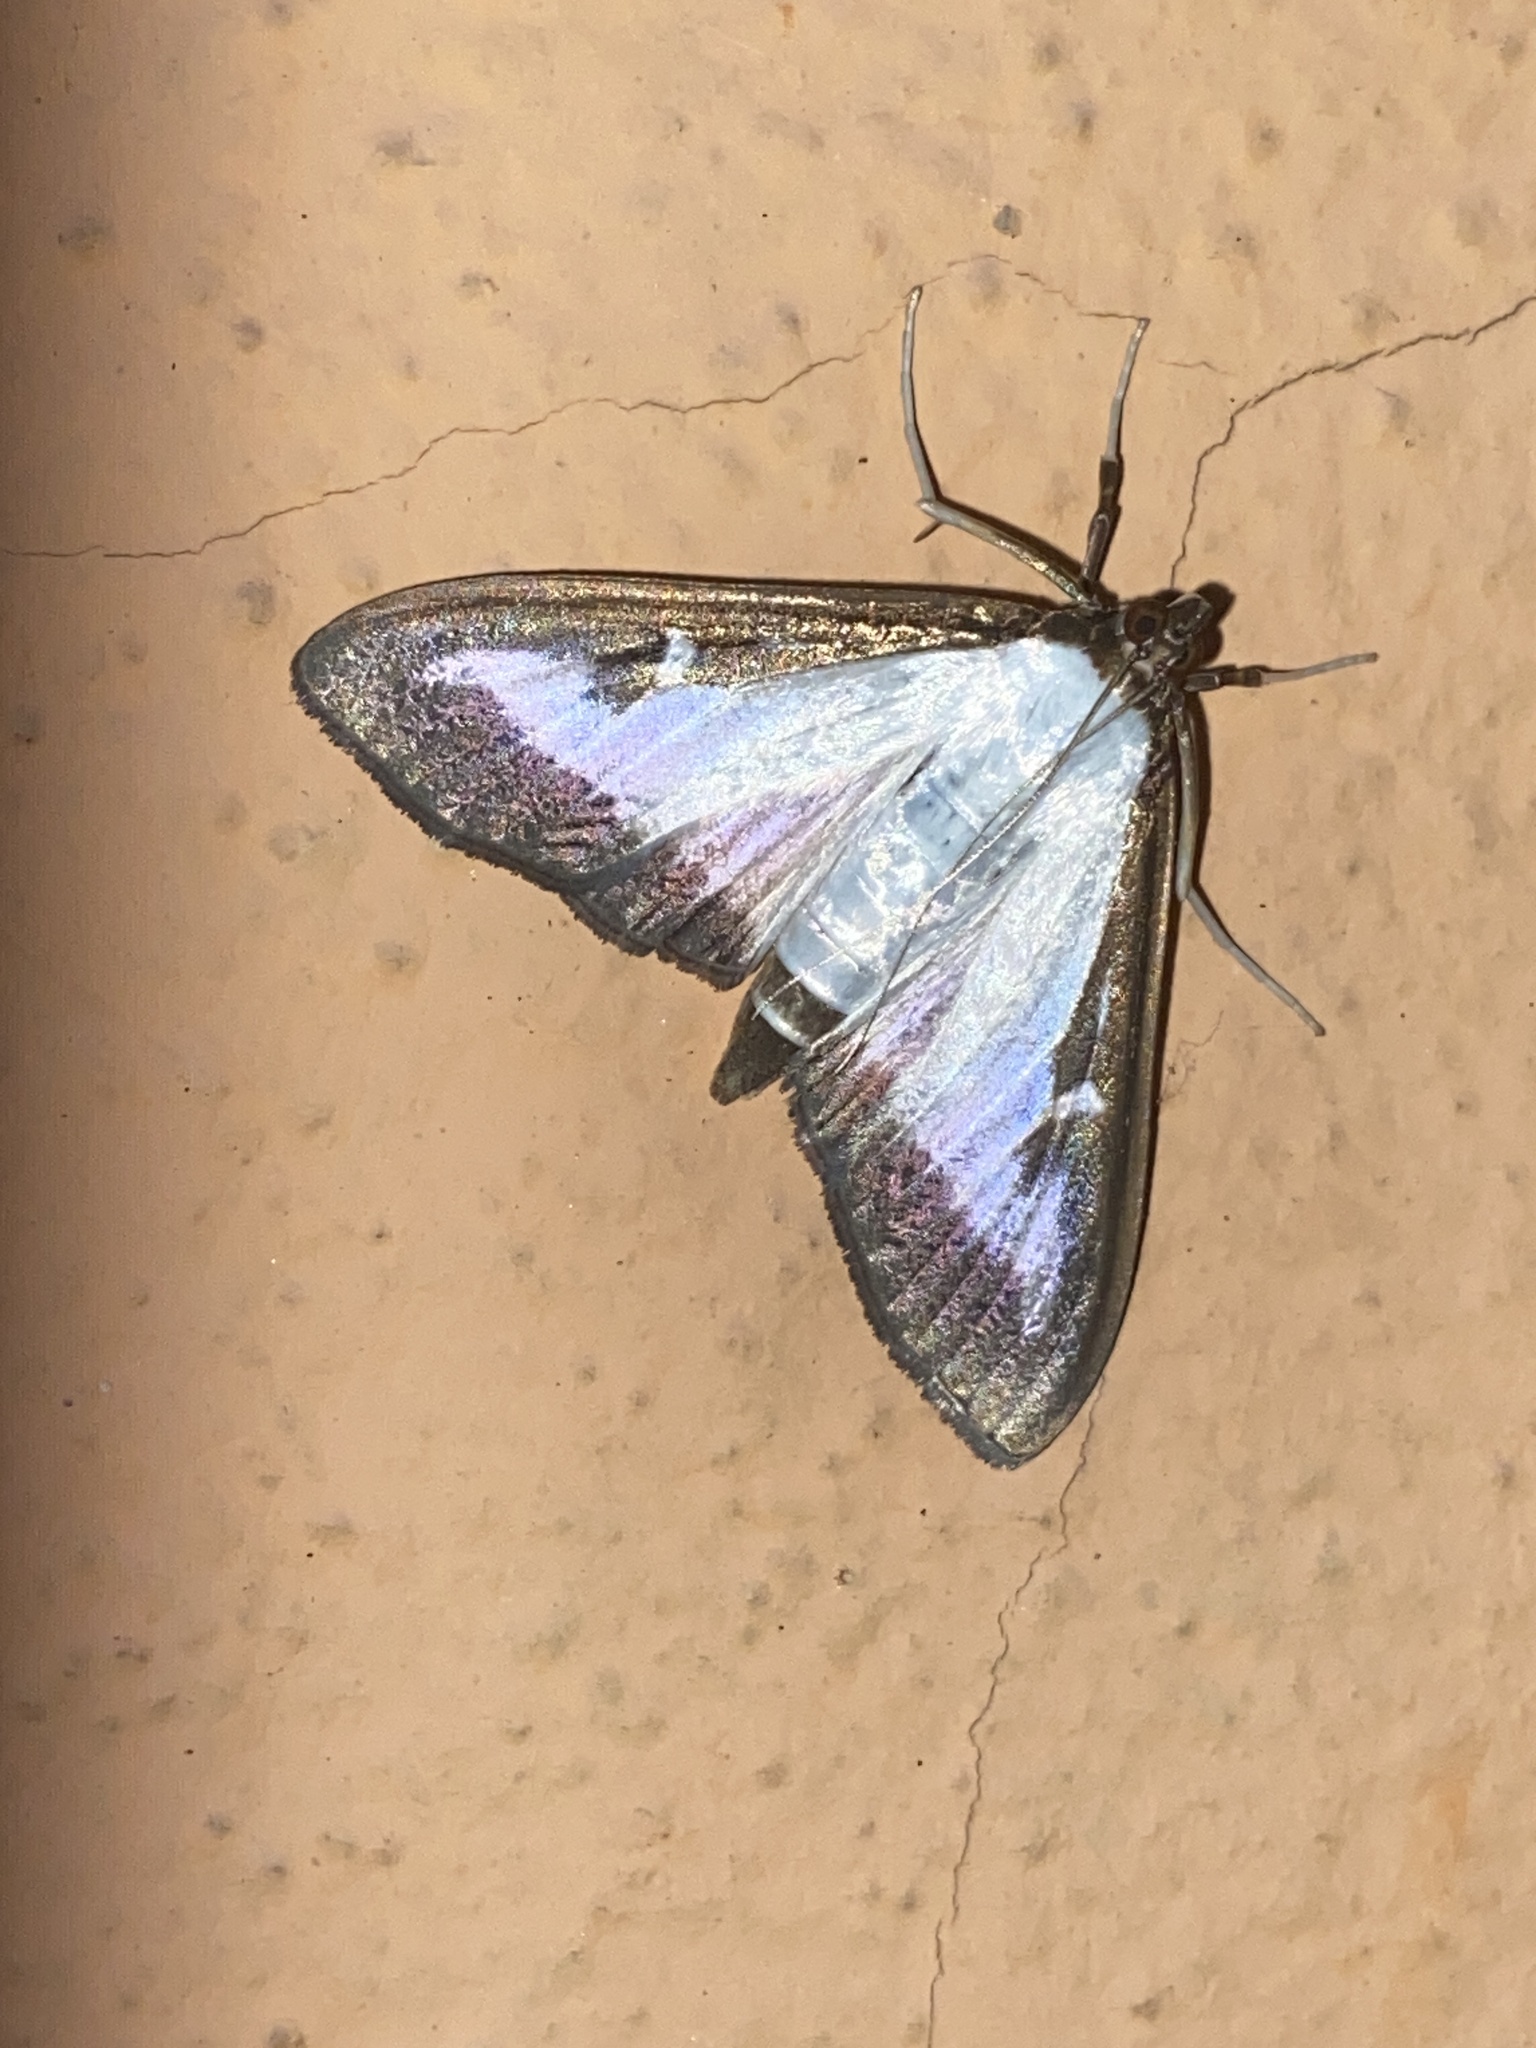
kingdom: Animalia
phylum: Arthropoda
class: Insecta
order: Lepidoptera
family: Crambidae
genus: Cydalima
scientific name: Cydalima perspectalis
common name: Box tree moth
